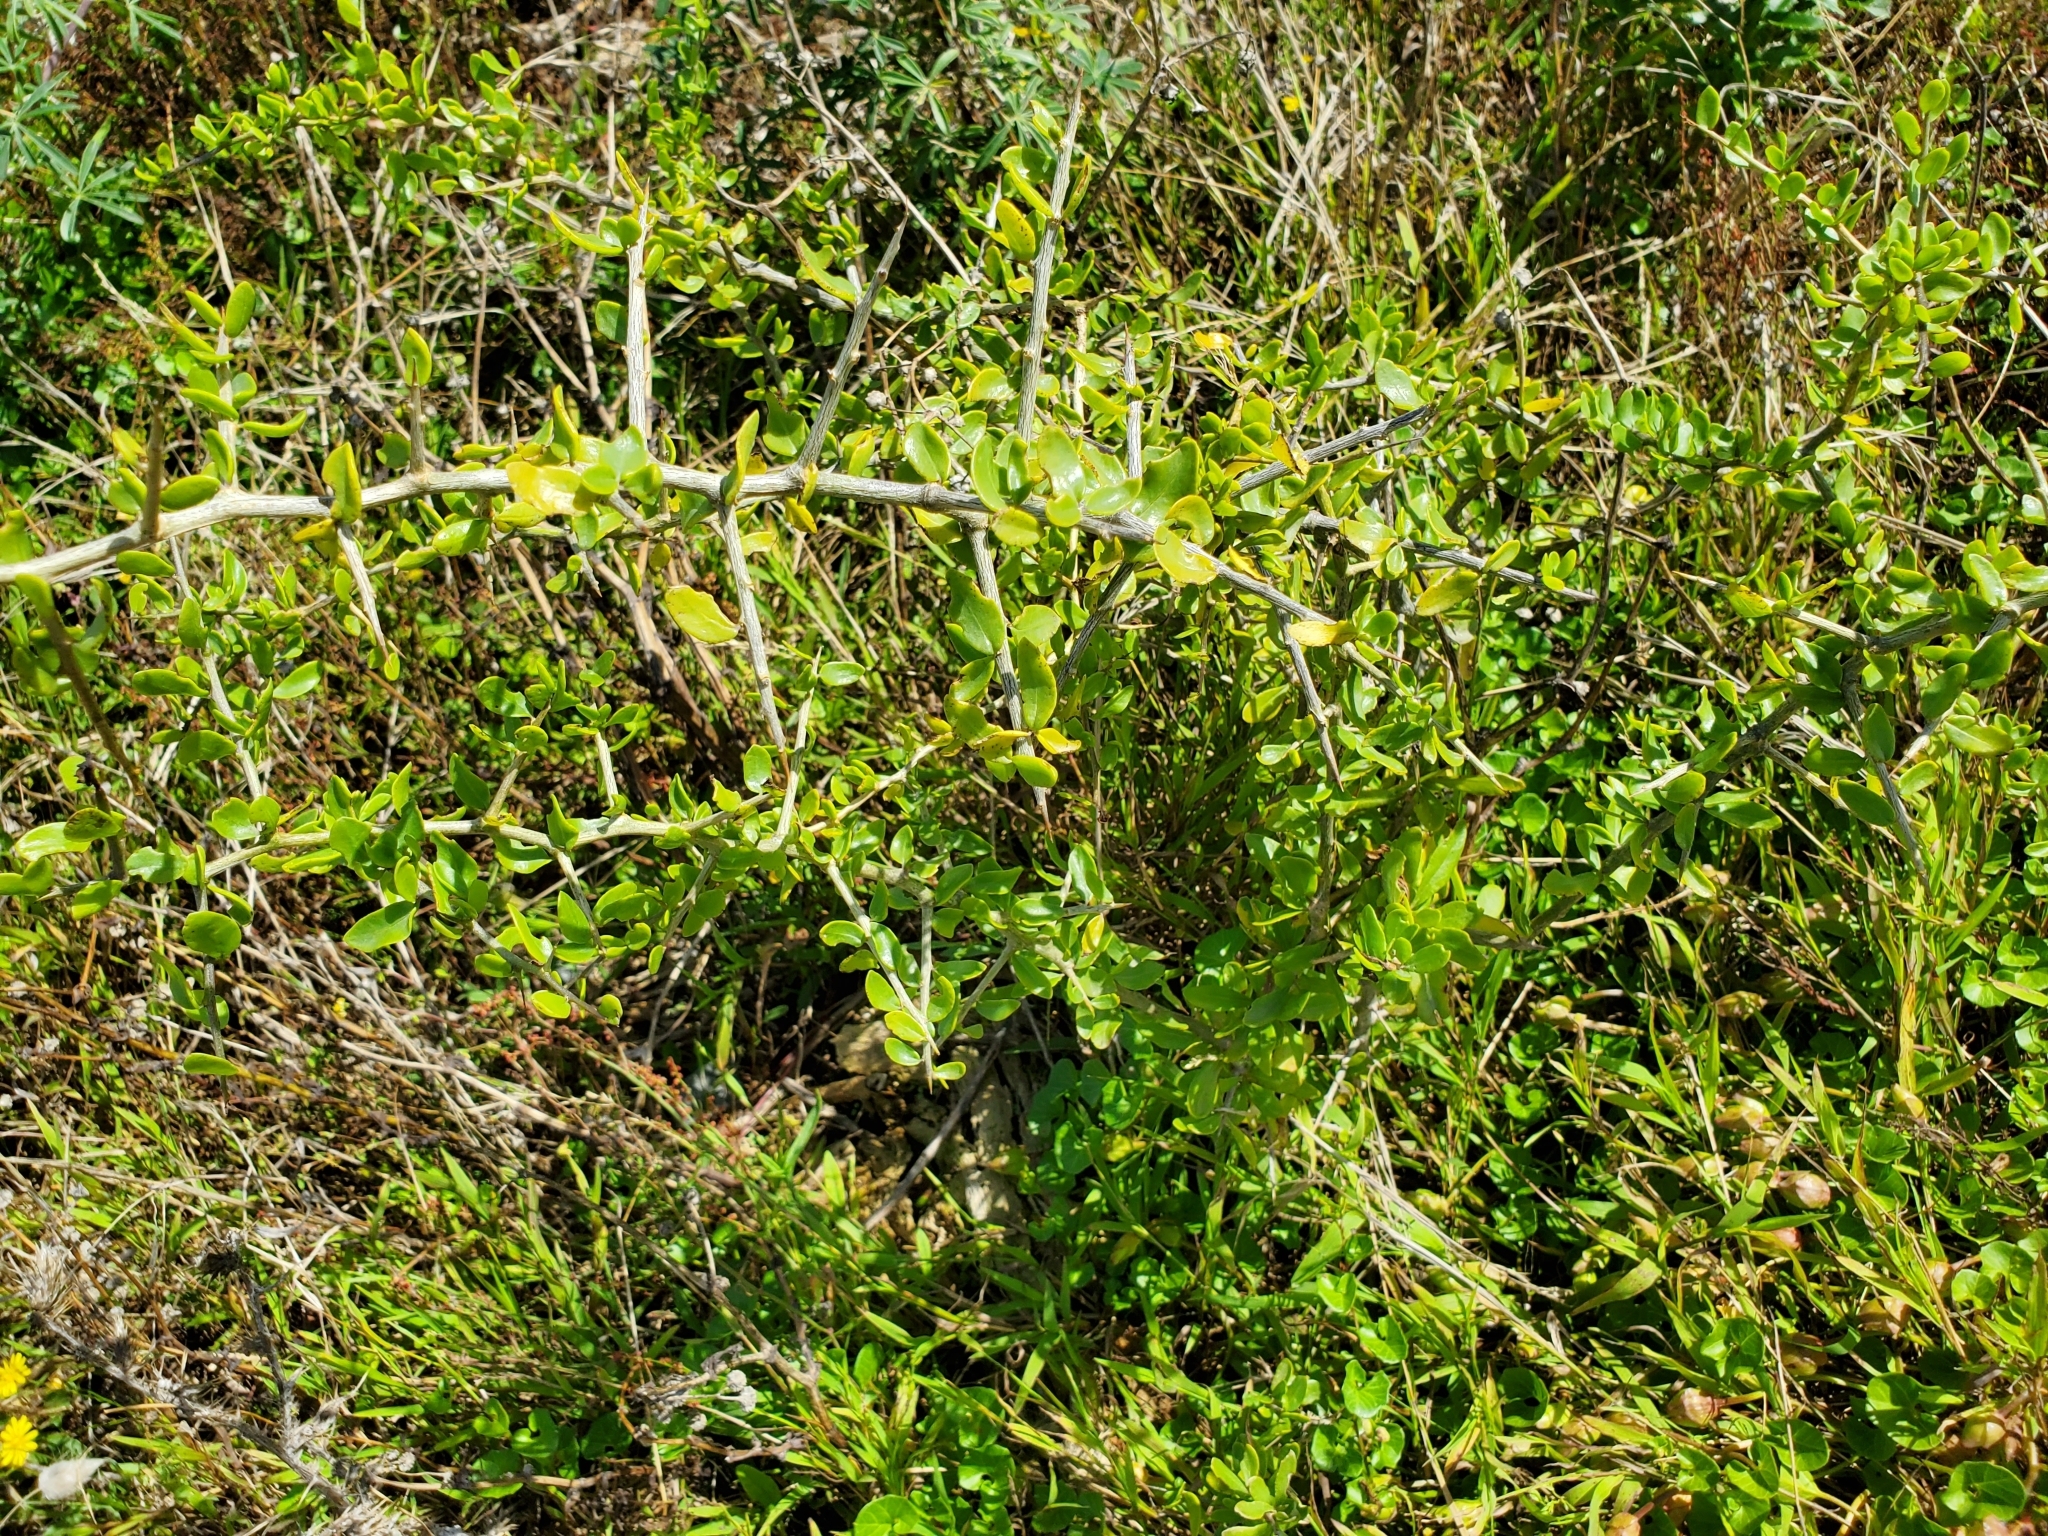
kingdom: Plantae
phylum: Tracheophyta
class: Magnoliopsida
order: Solanales
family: Solanaceae
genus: Lycium
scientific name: Lycium ferocissimum
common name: African boxthorn
